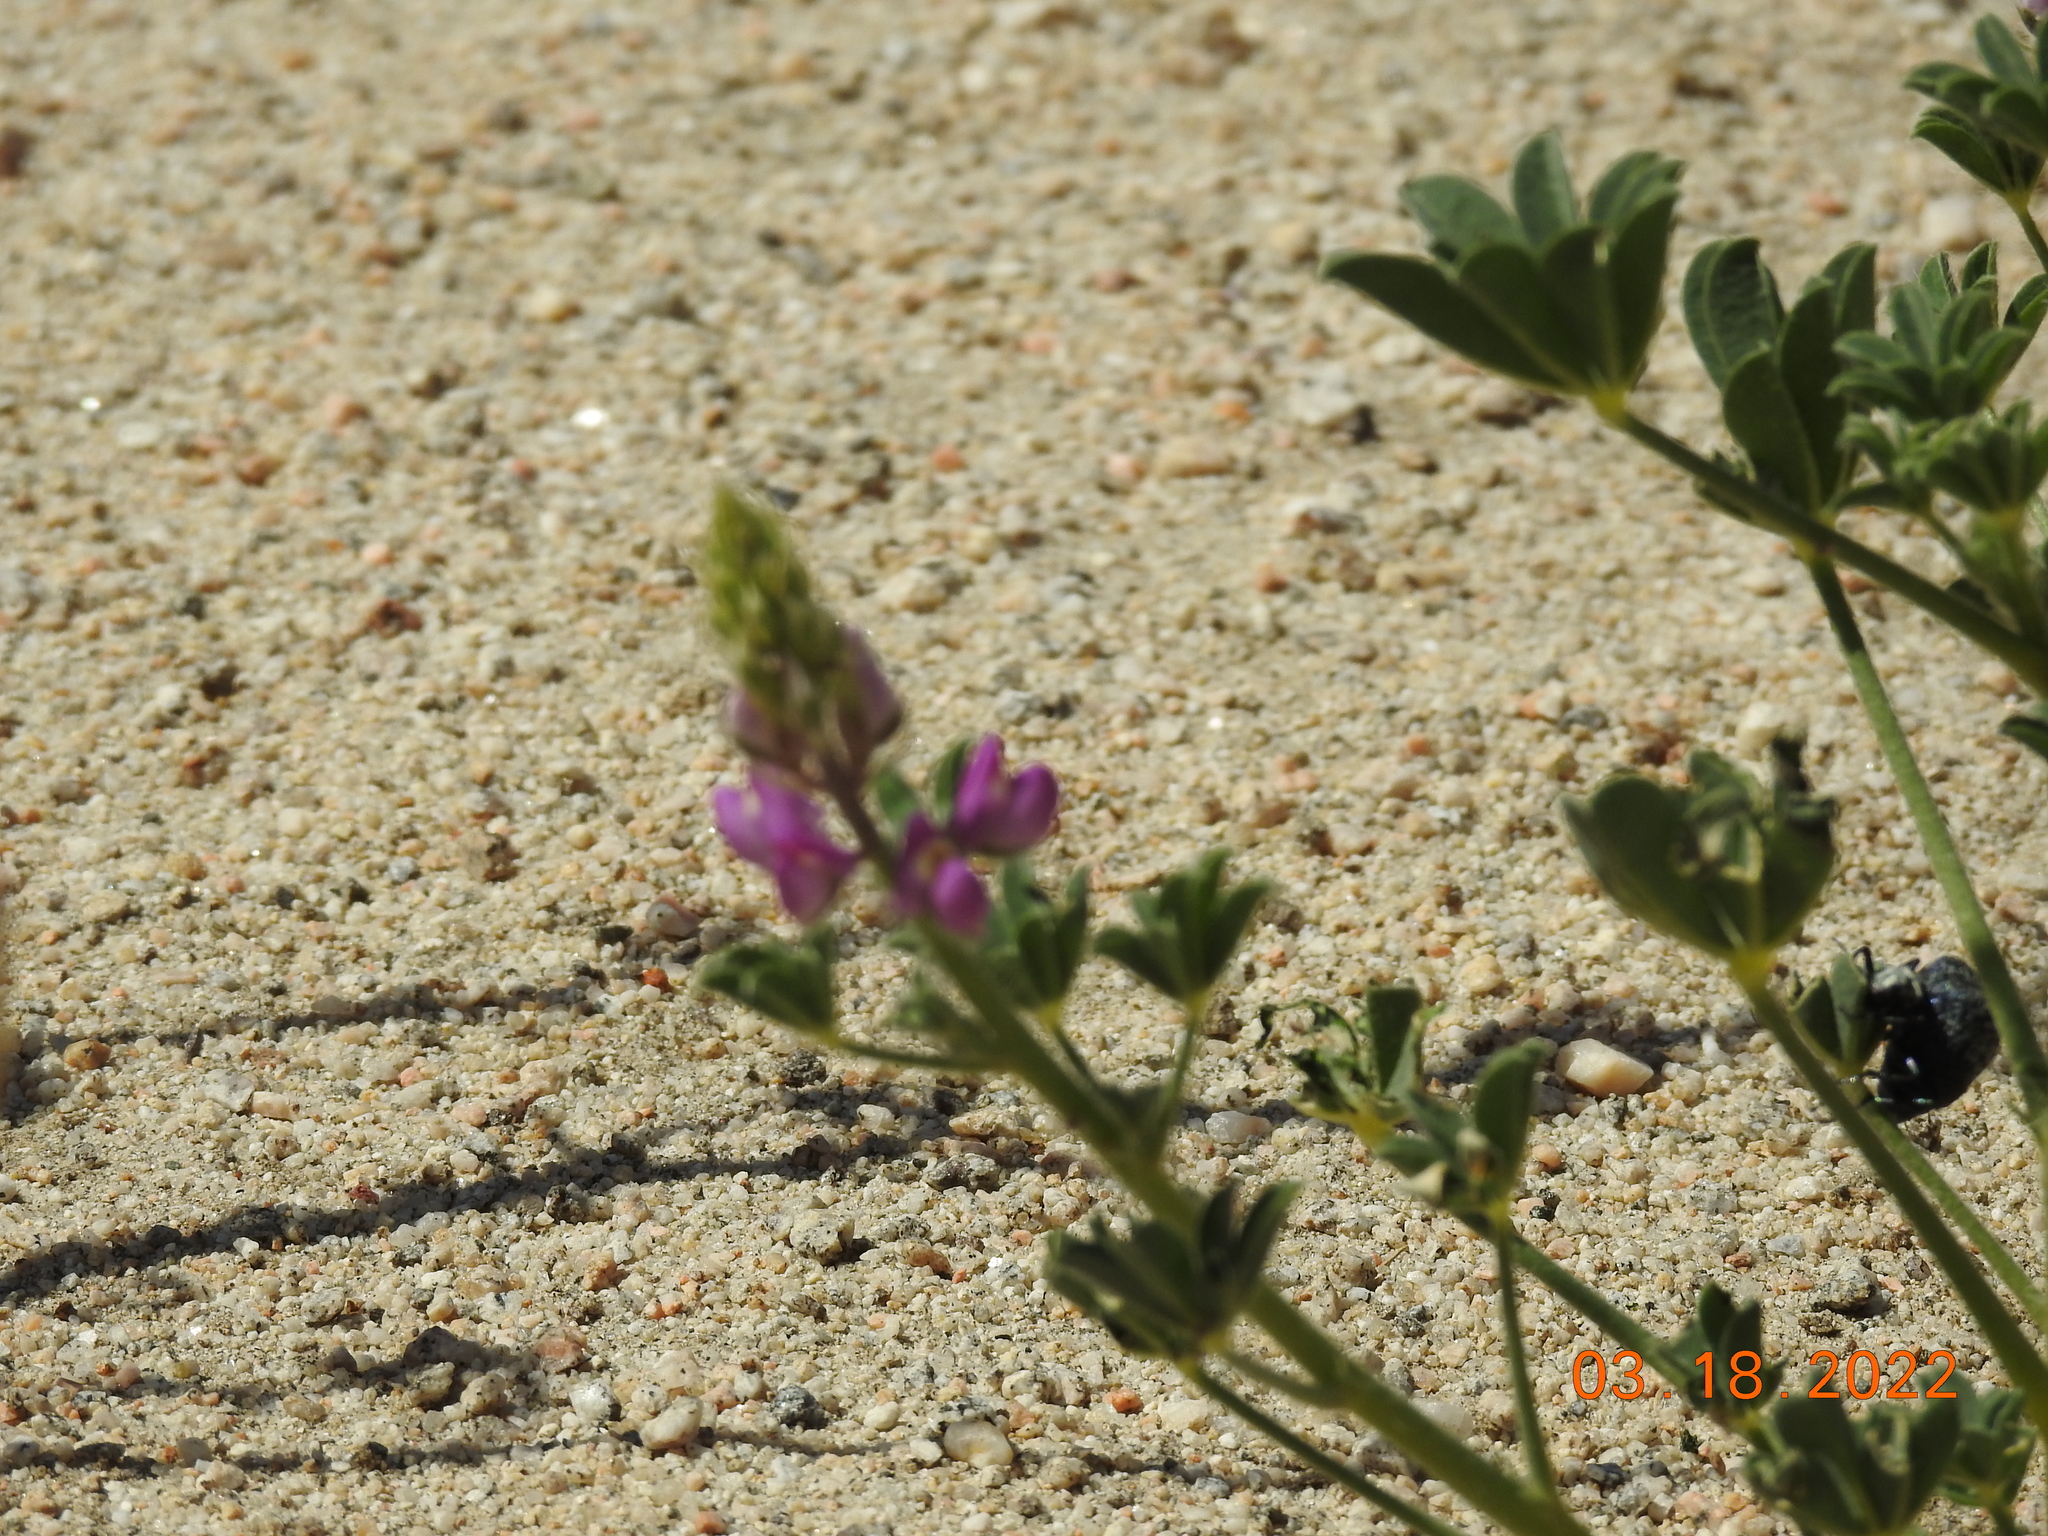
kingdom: Plantae
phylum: Tracheophyta
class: Magnoliopsida
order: Fabales
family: Fabaceae
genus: Lupinus
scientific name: Lupinus arizonicus
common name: Arizona lupine
